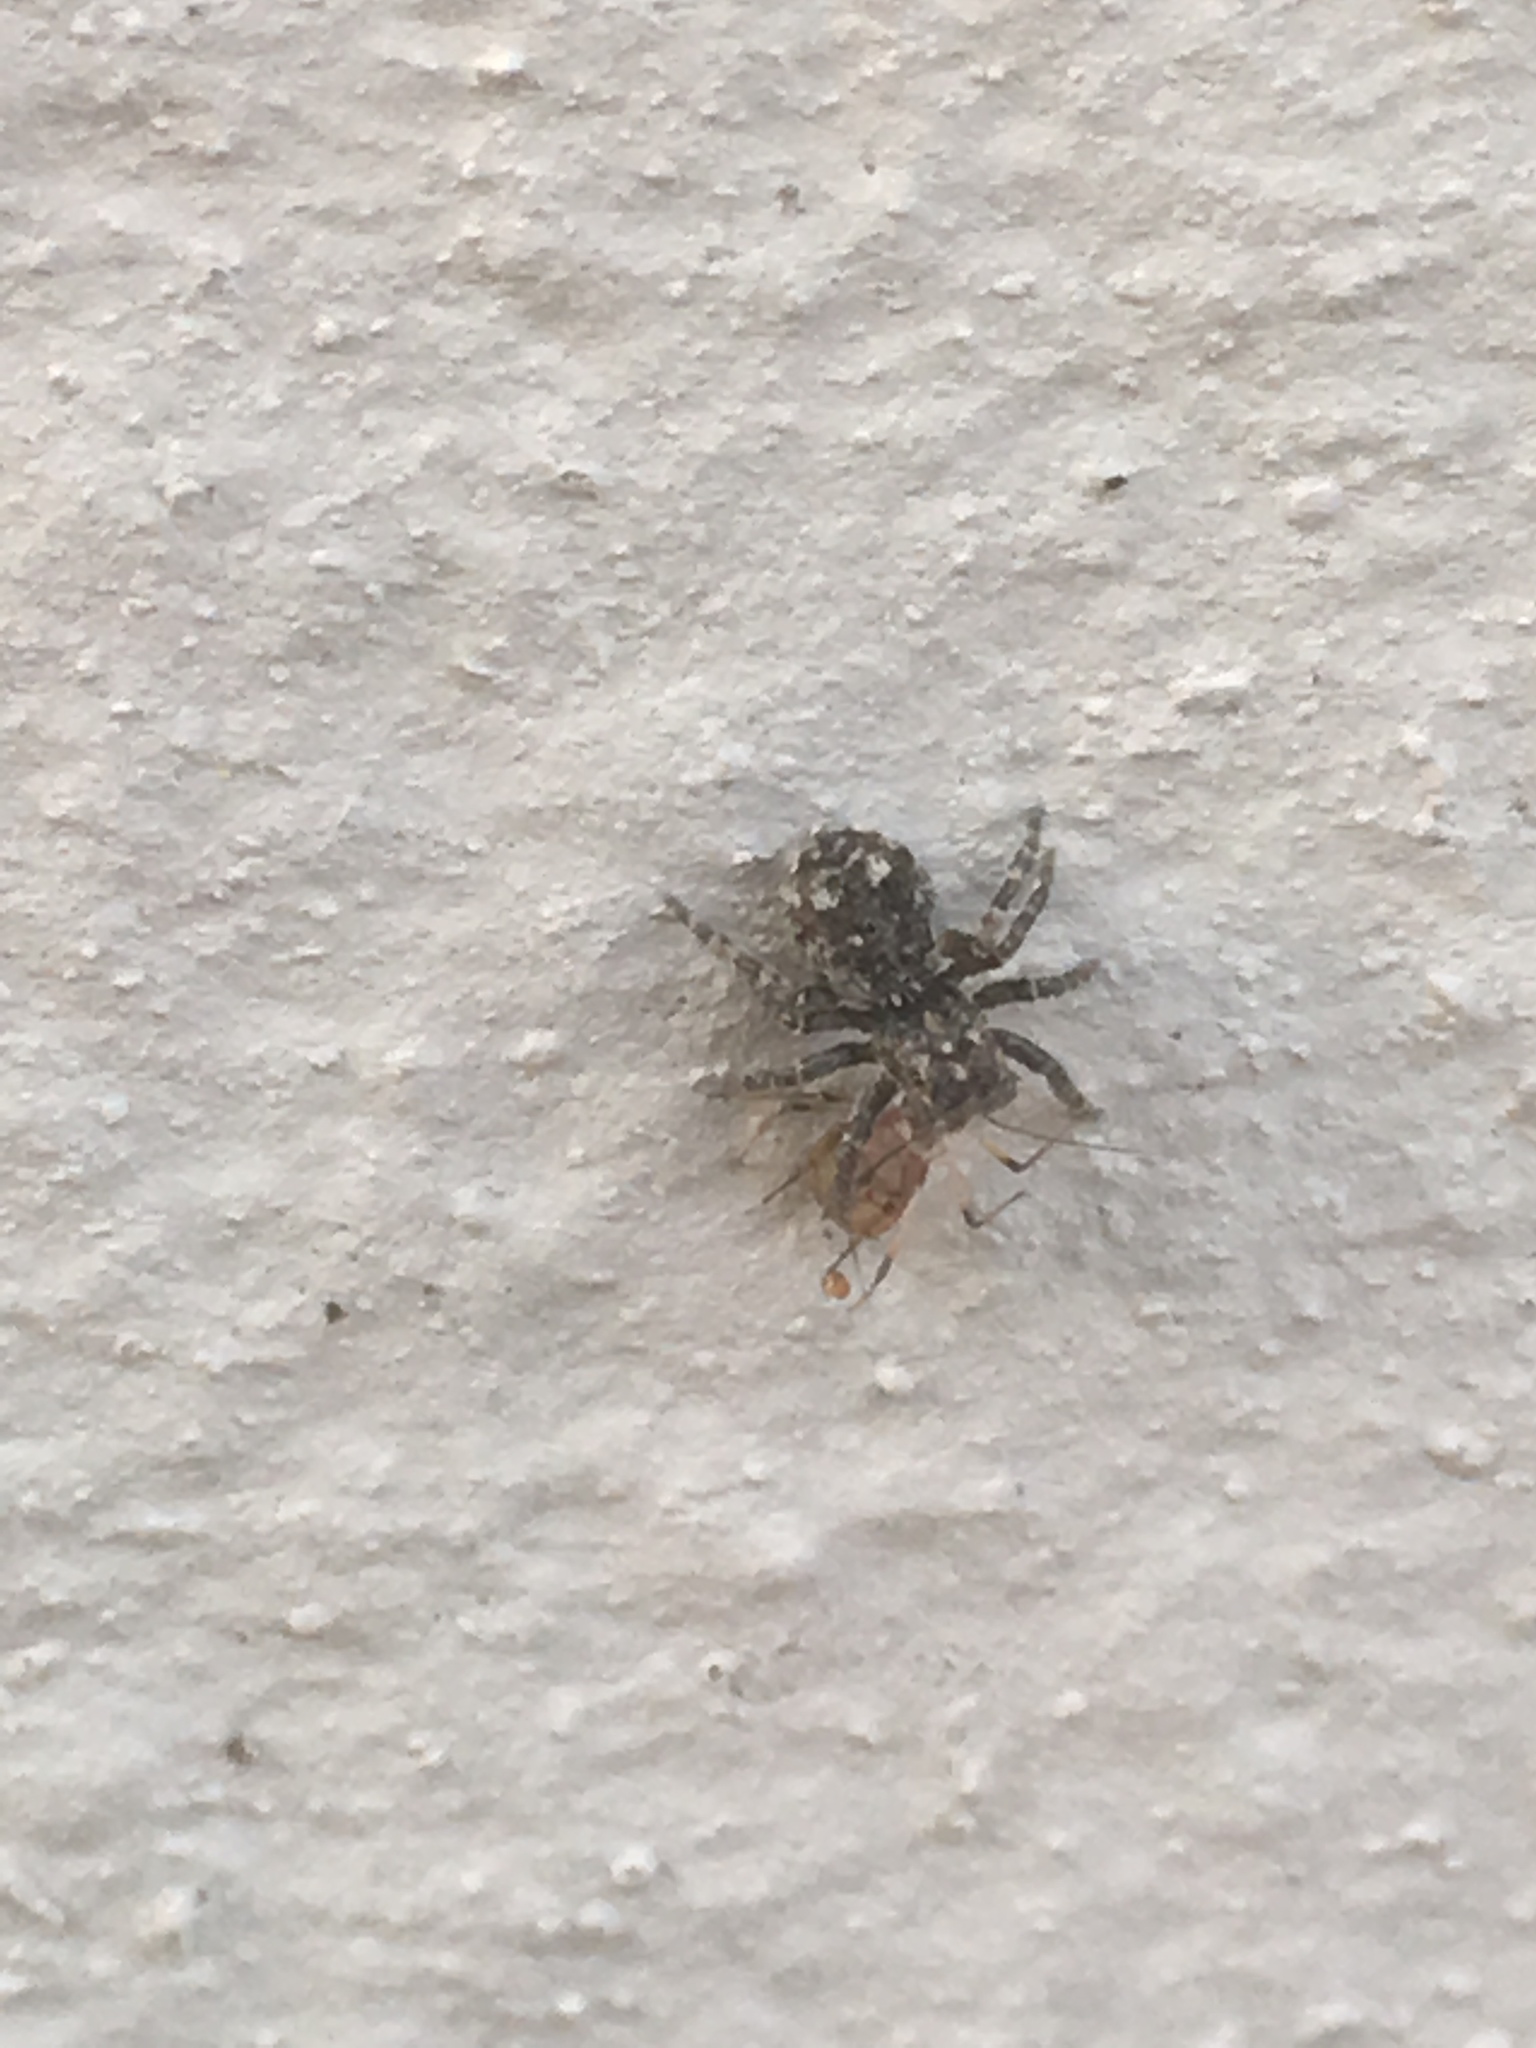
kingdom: Animalia
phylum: Arthropoda
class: Arachnida
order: Araneae
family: Salticidae
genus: Attulus
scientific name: Attulus pubescens
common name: Jumping spider
